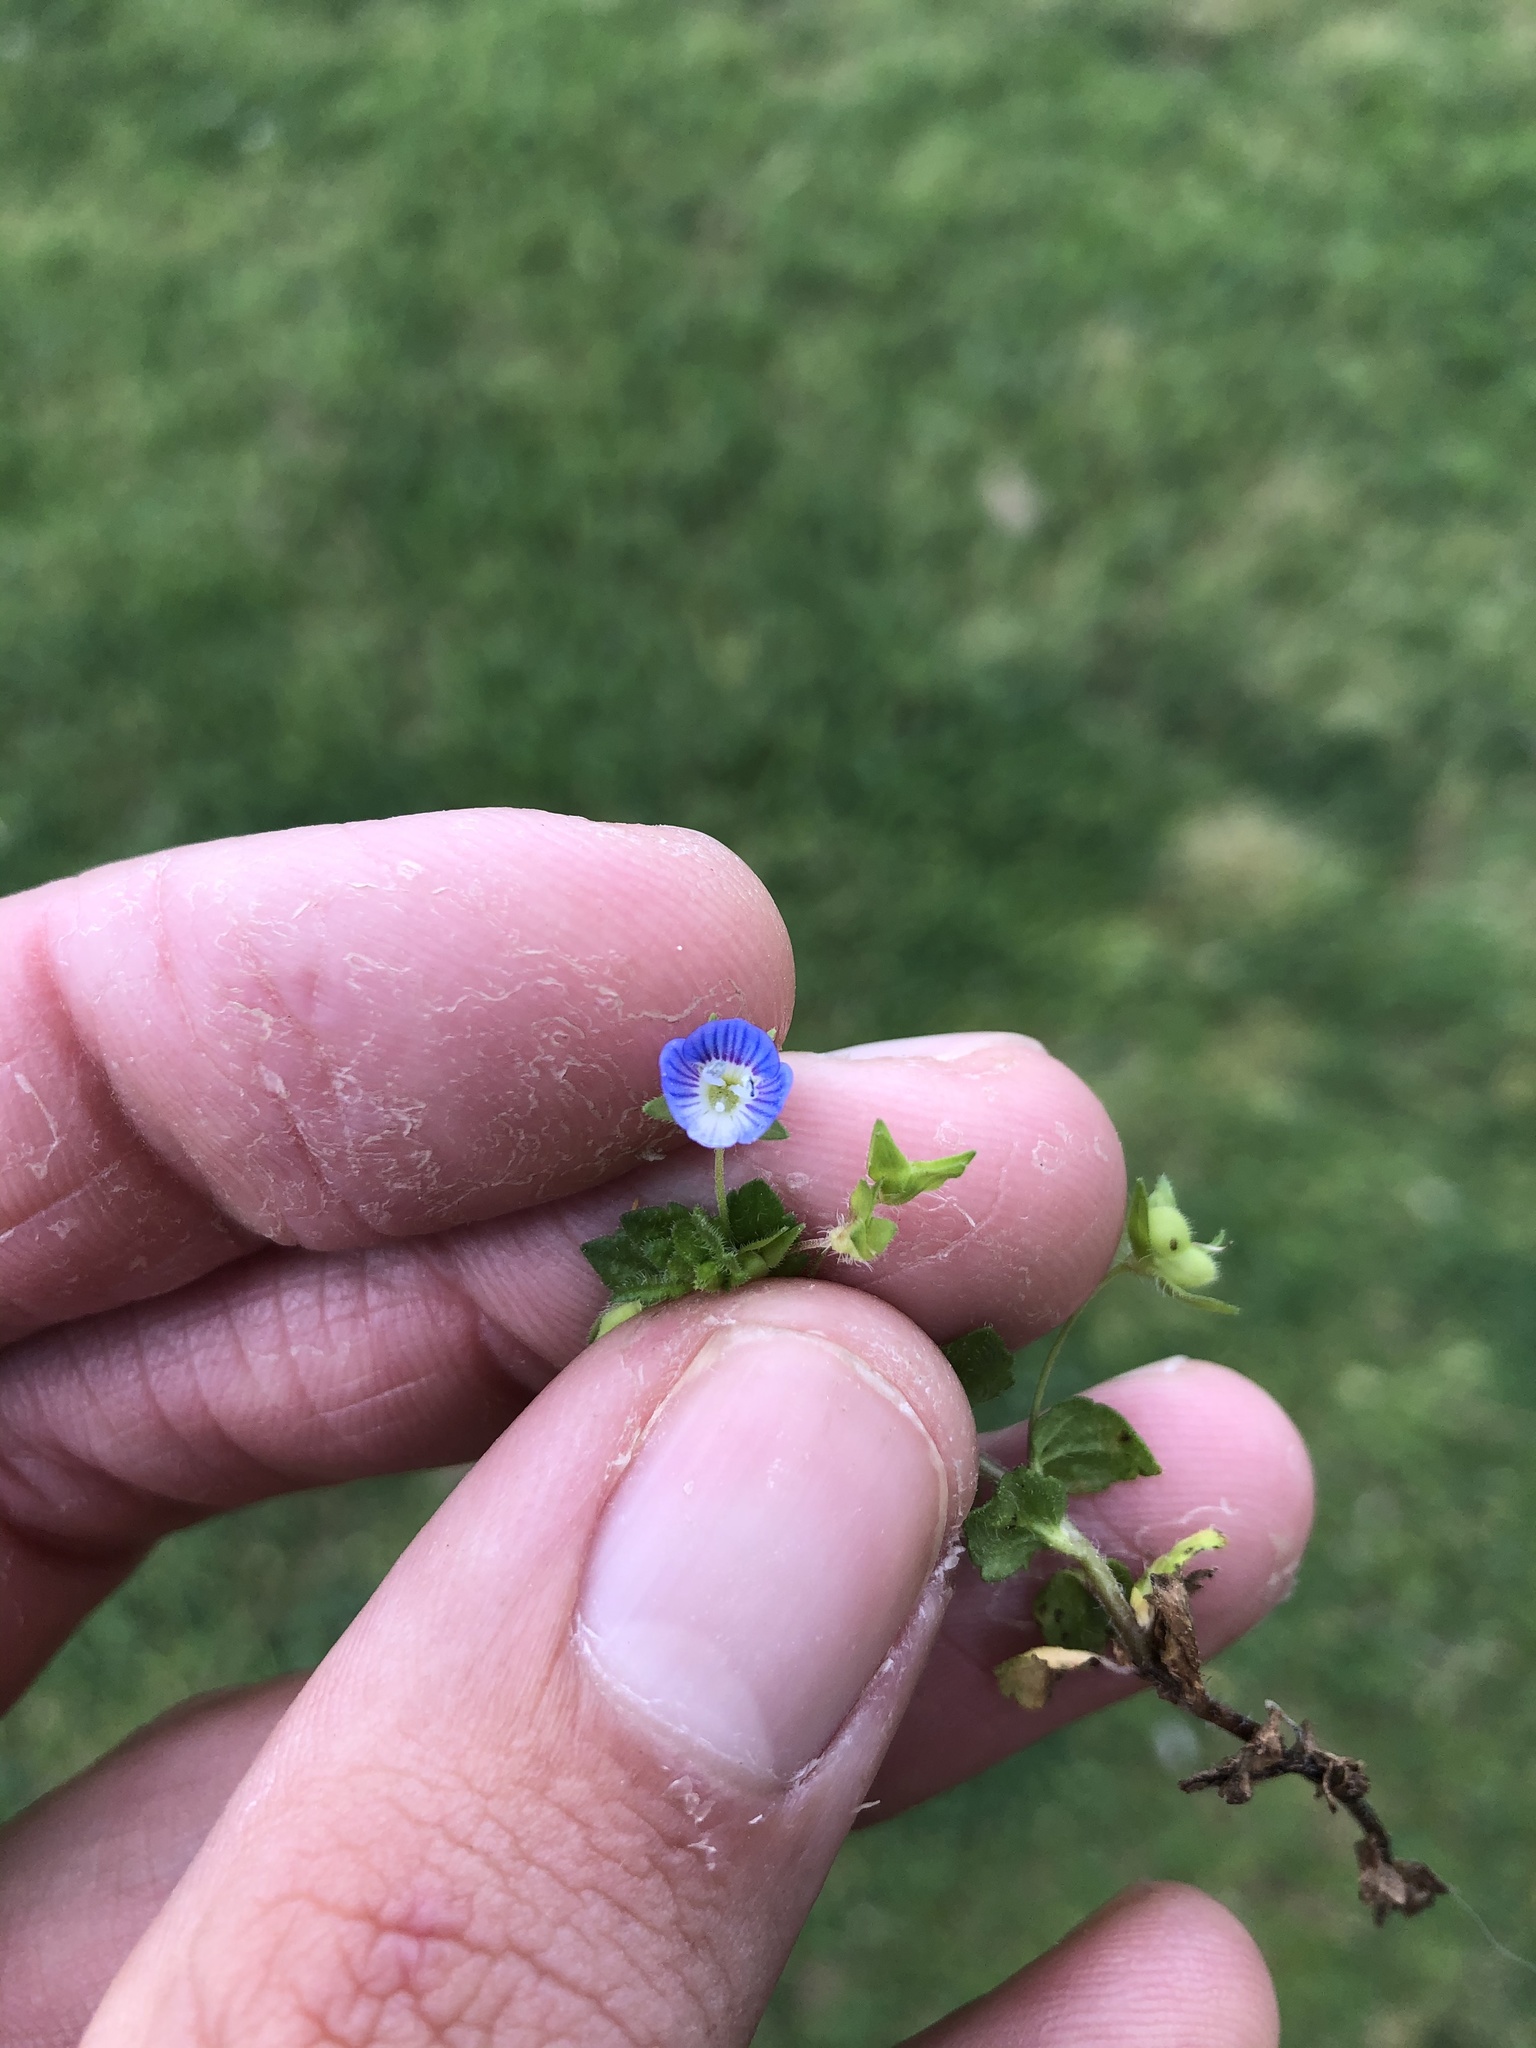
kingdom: Plantae
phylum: Tracheophyta
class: Magnoliopsida
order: Lamiales
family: Plantaginaceae
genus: Veronica
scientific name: Veronica persica
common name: Common field-speedwell
